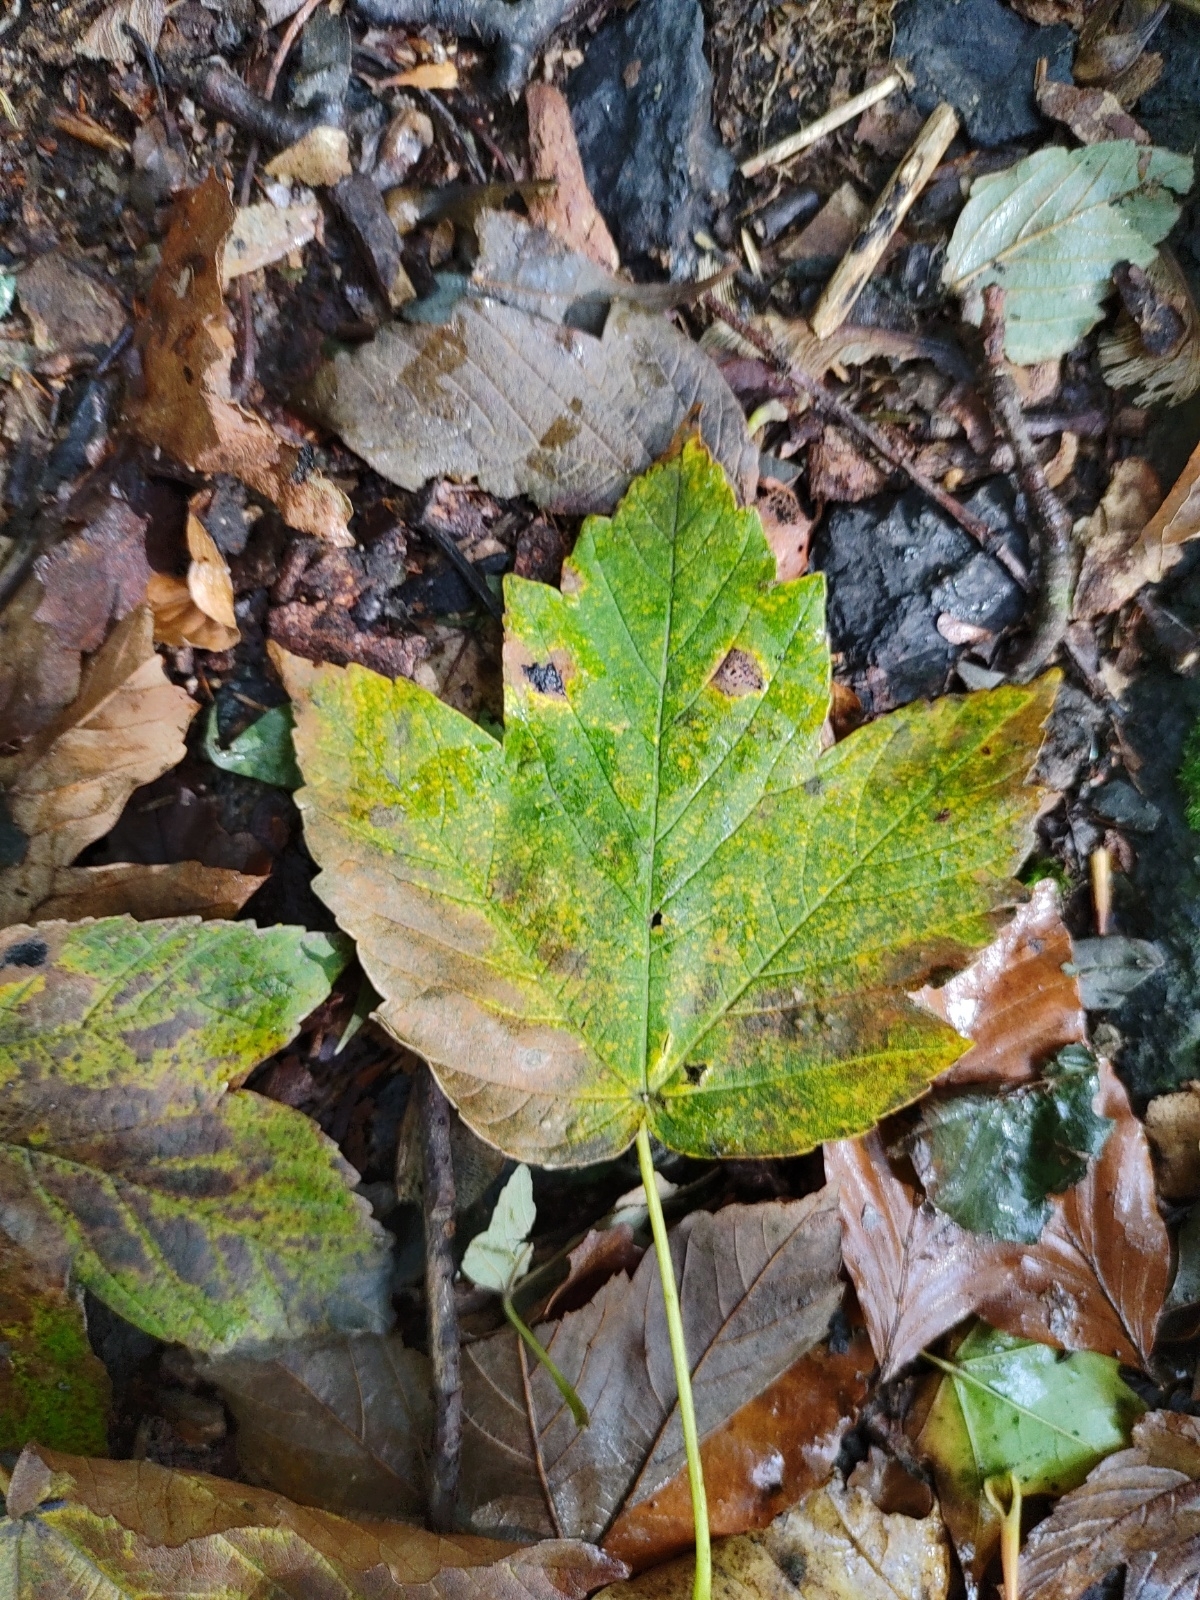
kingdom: Plantae
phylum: Tracheophyta
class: Magnoliopsida
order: Sapindales
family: Sapindaceae
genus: Acer
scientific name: Acer pseudoplatanus
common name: Sycamore
